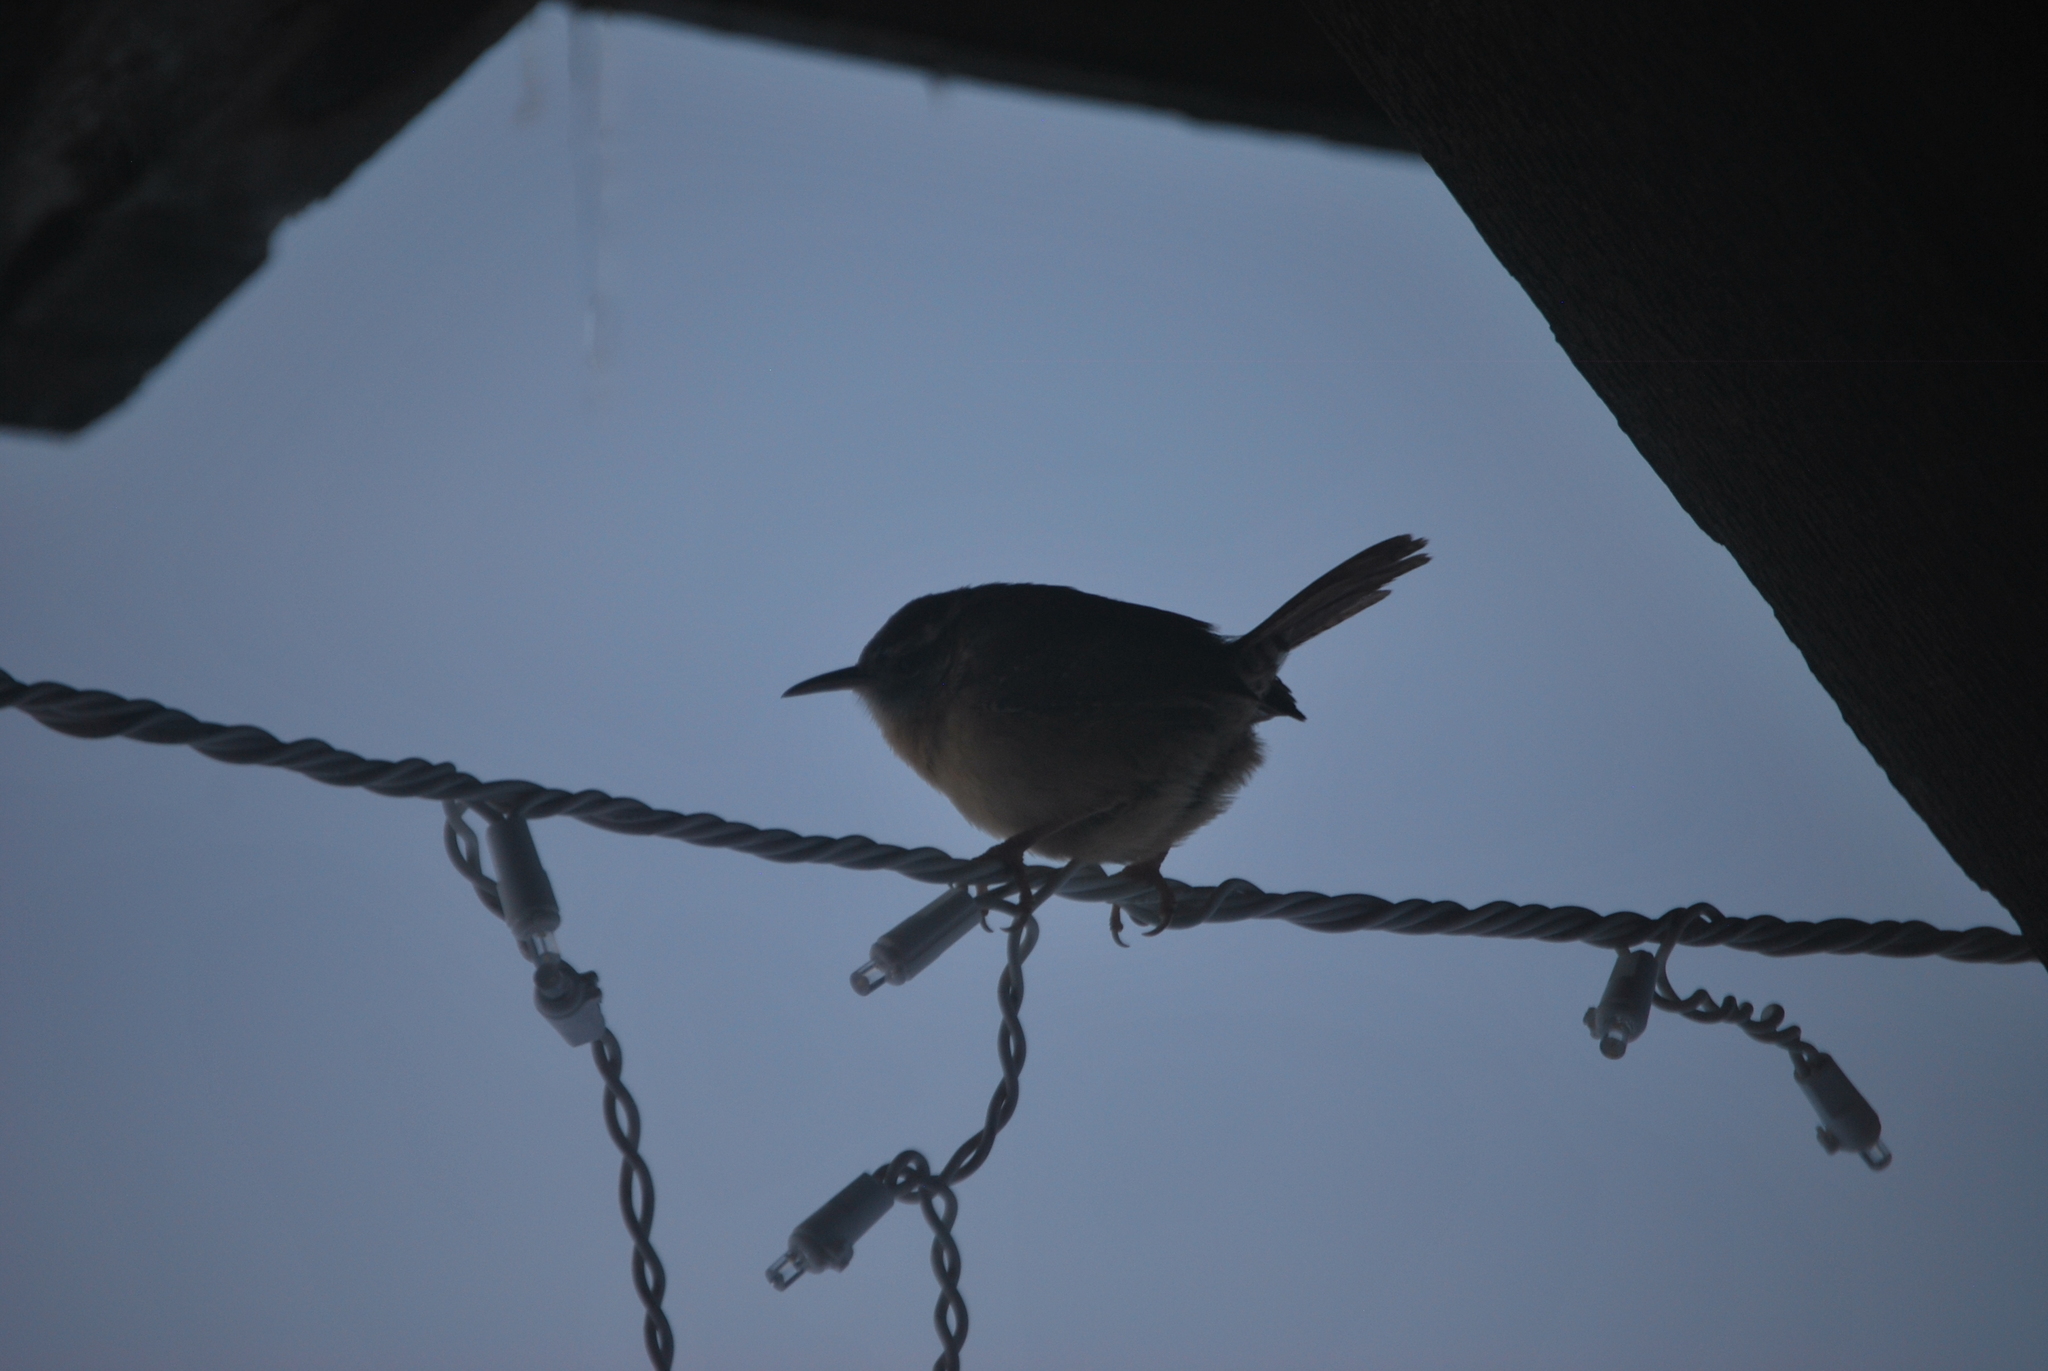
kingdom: Animalia
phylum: Chordata
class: Aves
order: Passeriformes
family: Troglodytidae
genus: Thryothorus
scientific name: Thryothorus ludovicianus
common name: Carolina wren
